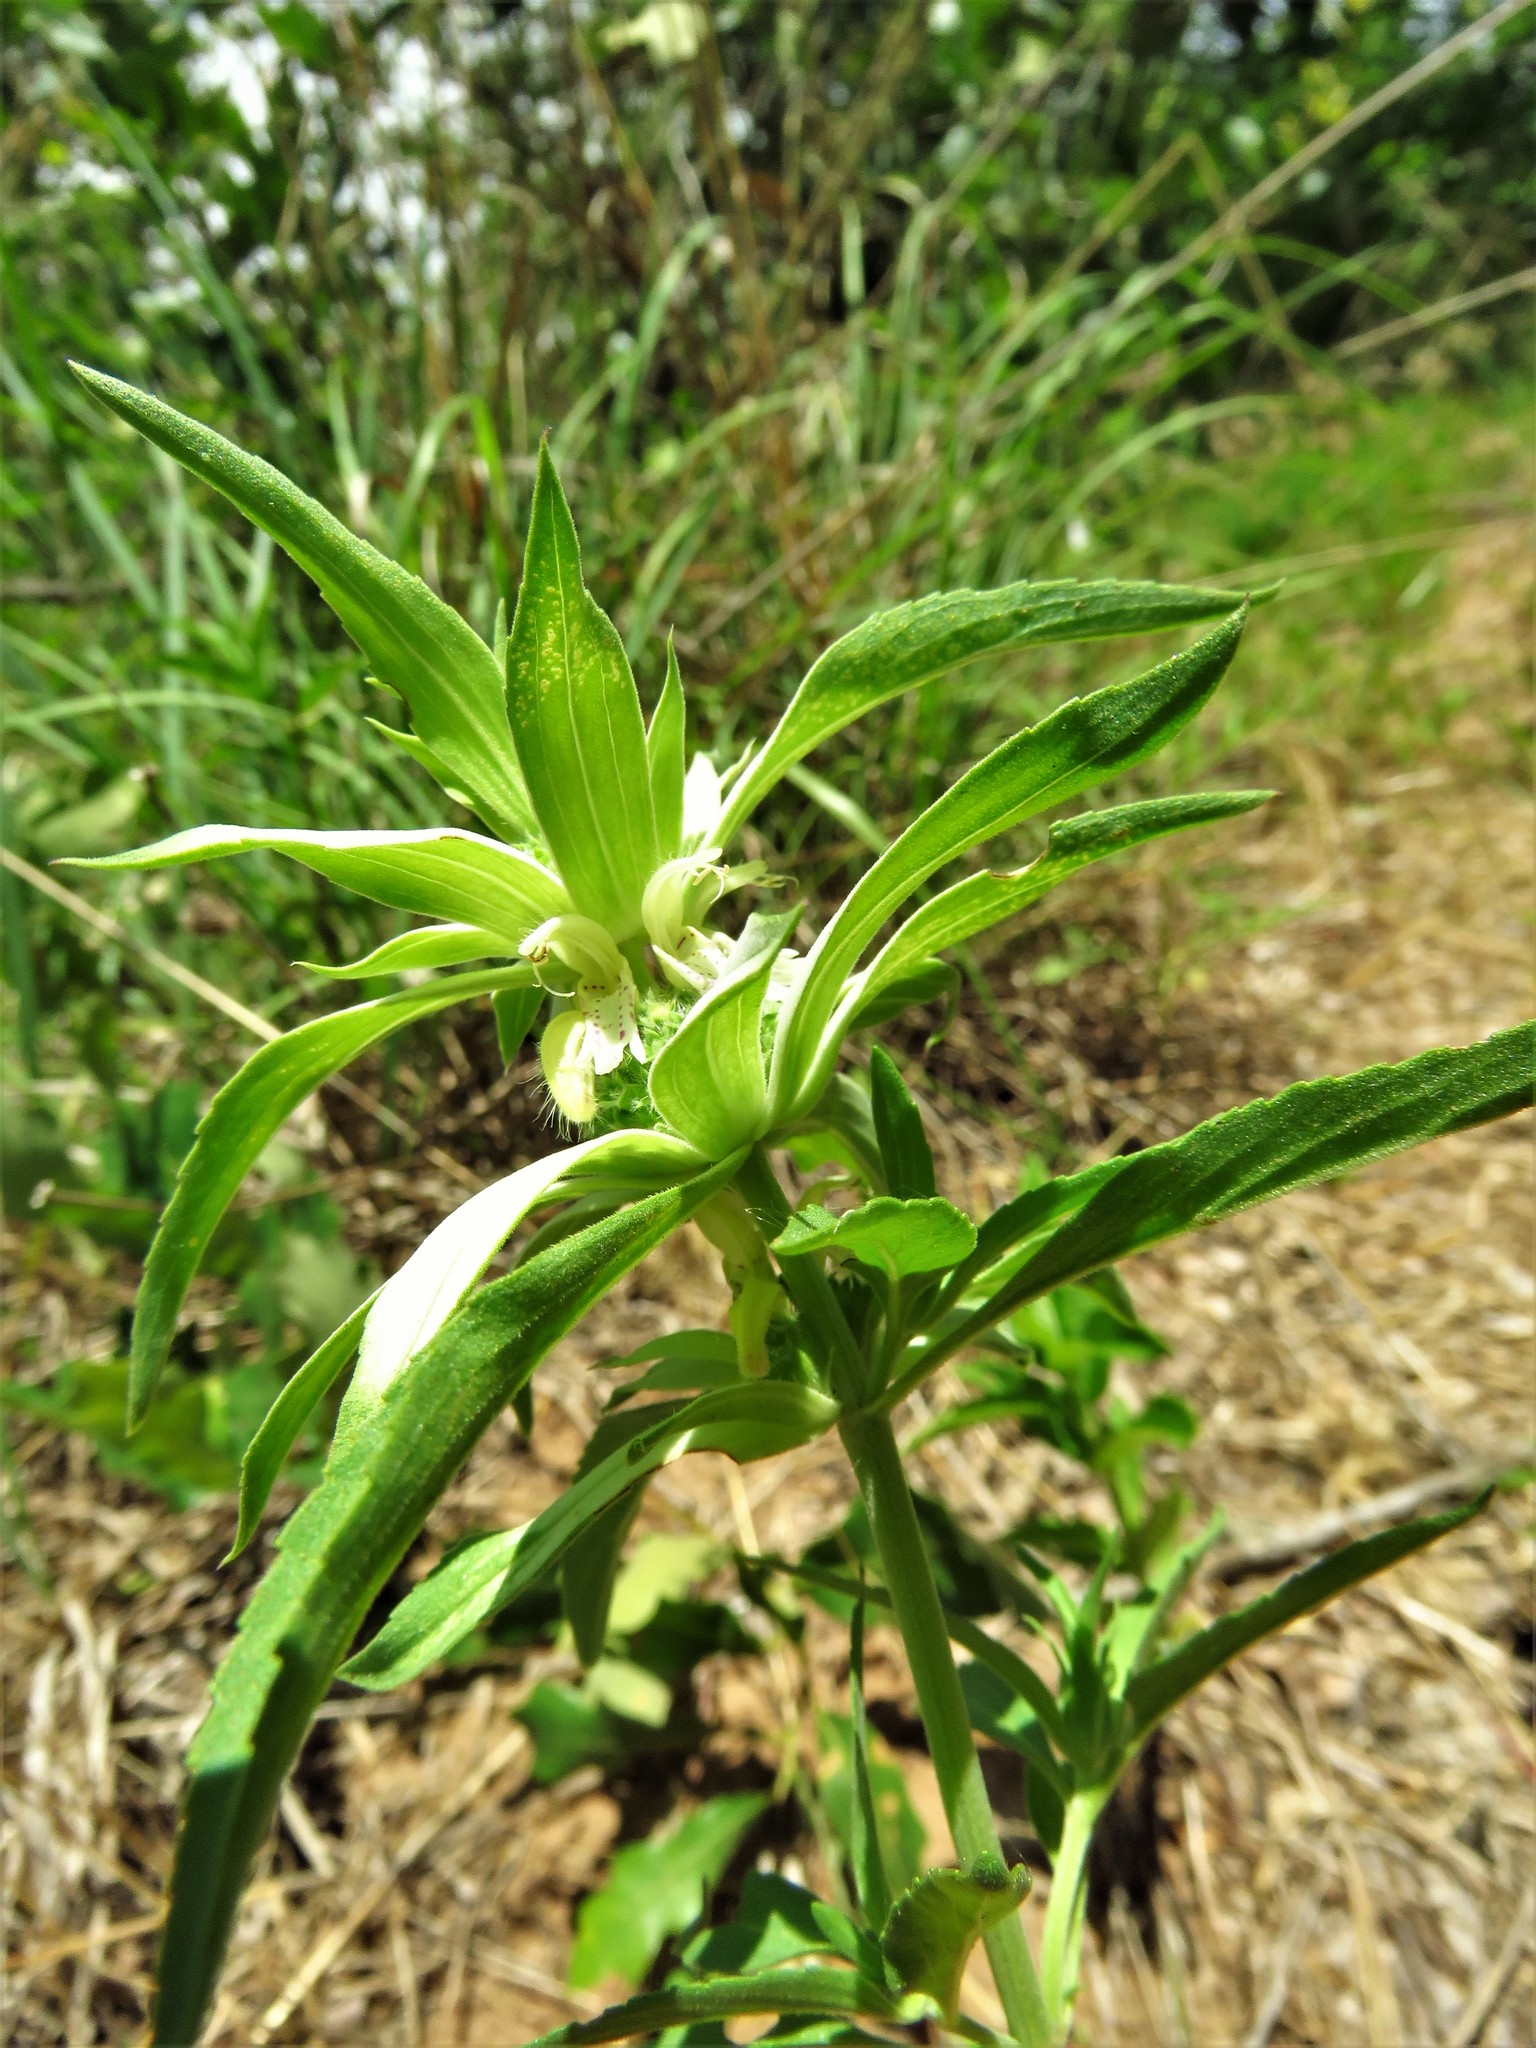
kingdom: Plantae
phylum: Tracheophyta
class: Magnoliopsida
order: Lamiales
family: Lamiaceae
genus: Monarda
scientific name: Monarda punctata
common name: Dotted monarda
